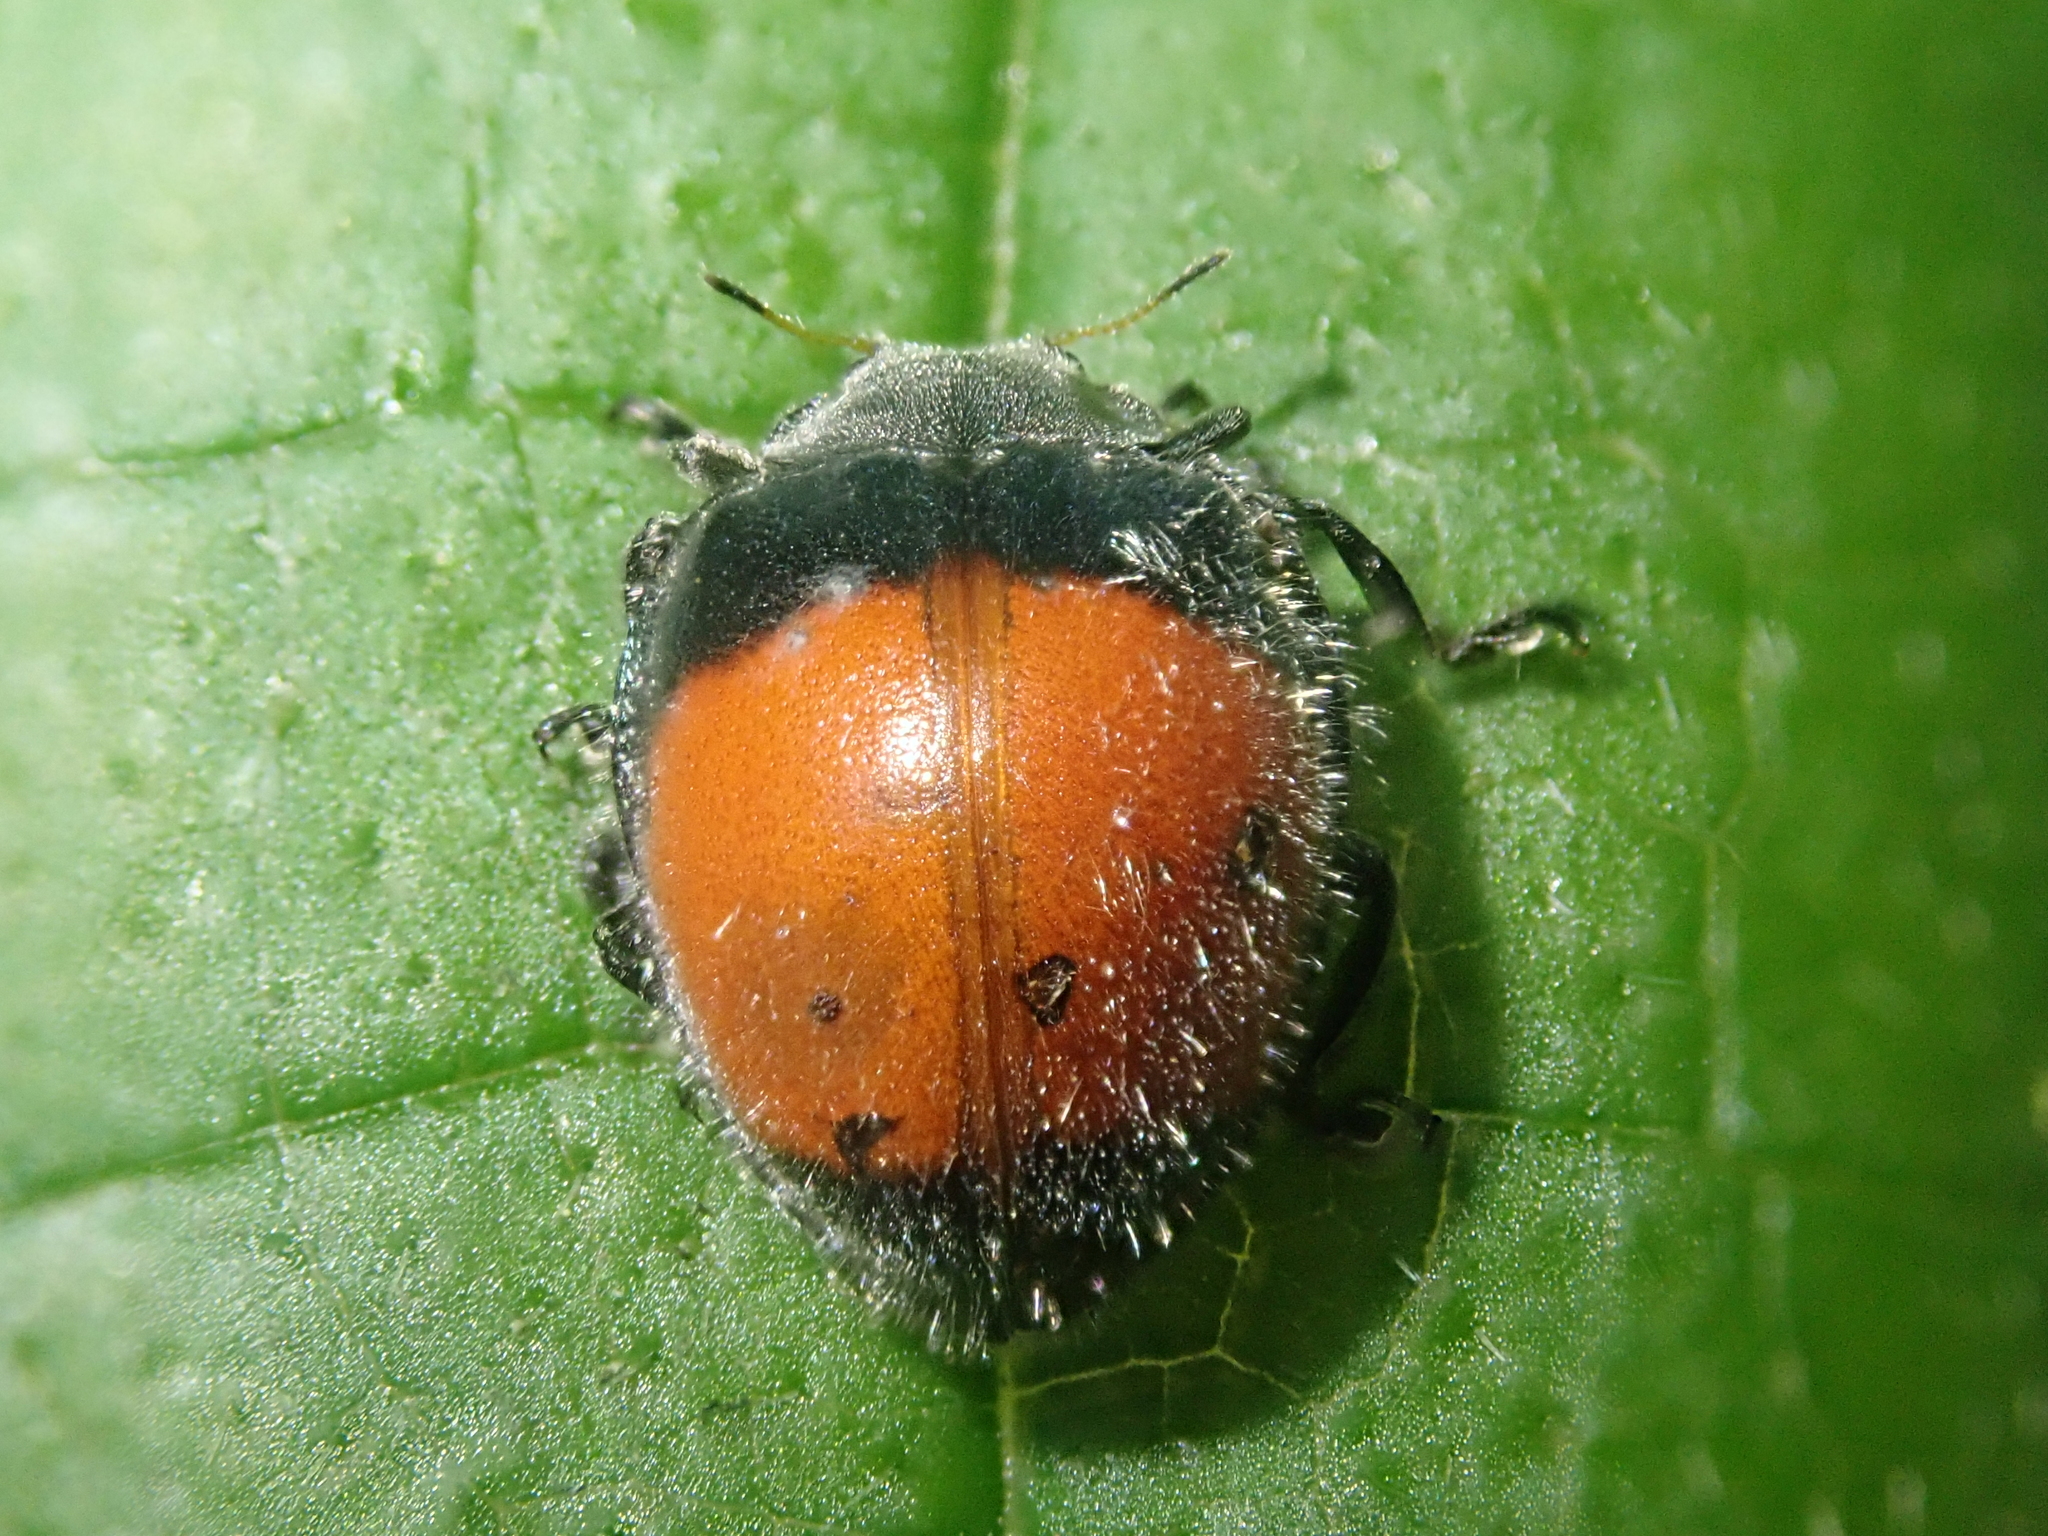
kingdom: Animalia
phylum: Arthropoda
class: Insecta
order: Coleoptera
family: Coccinellidae
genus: Toxotoma
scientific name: Toxotoma
